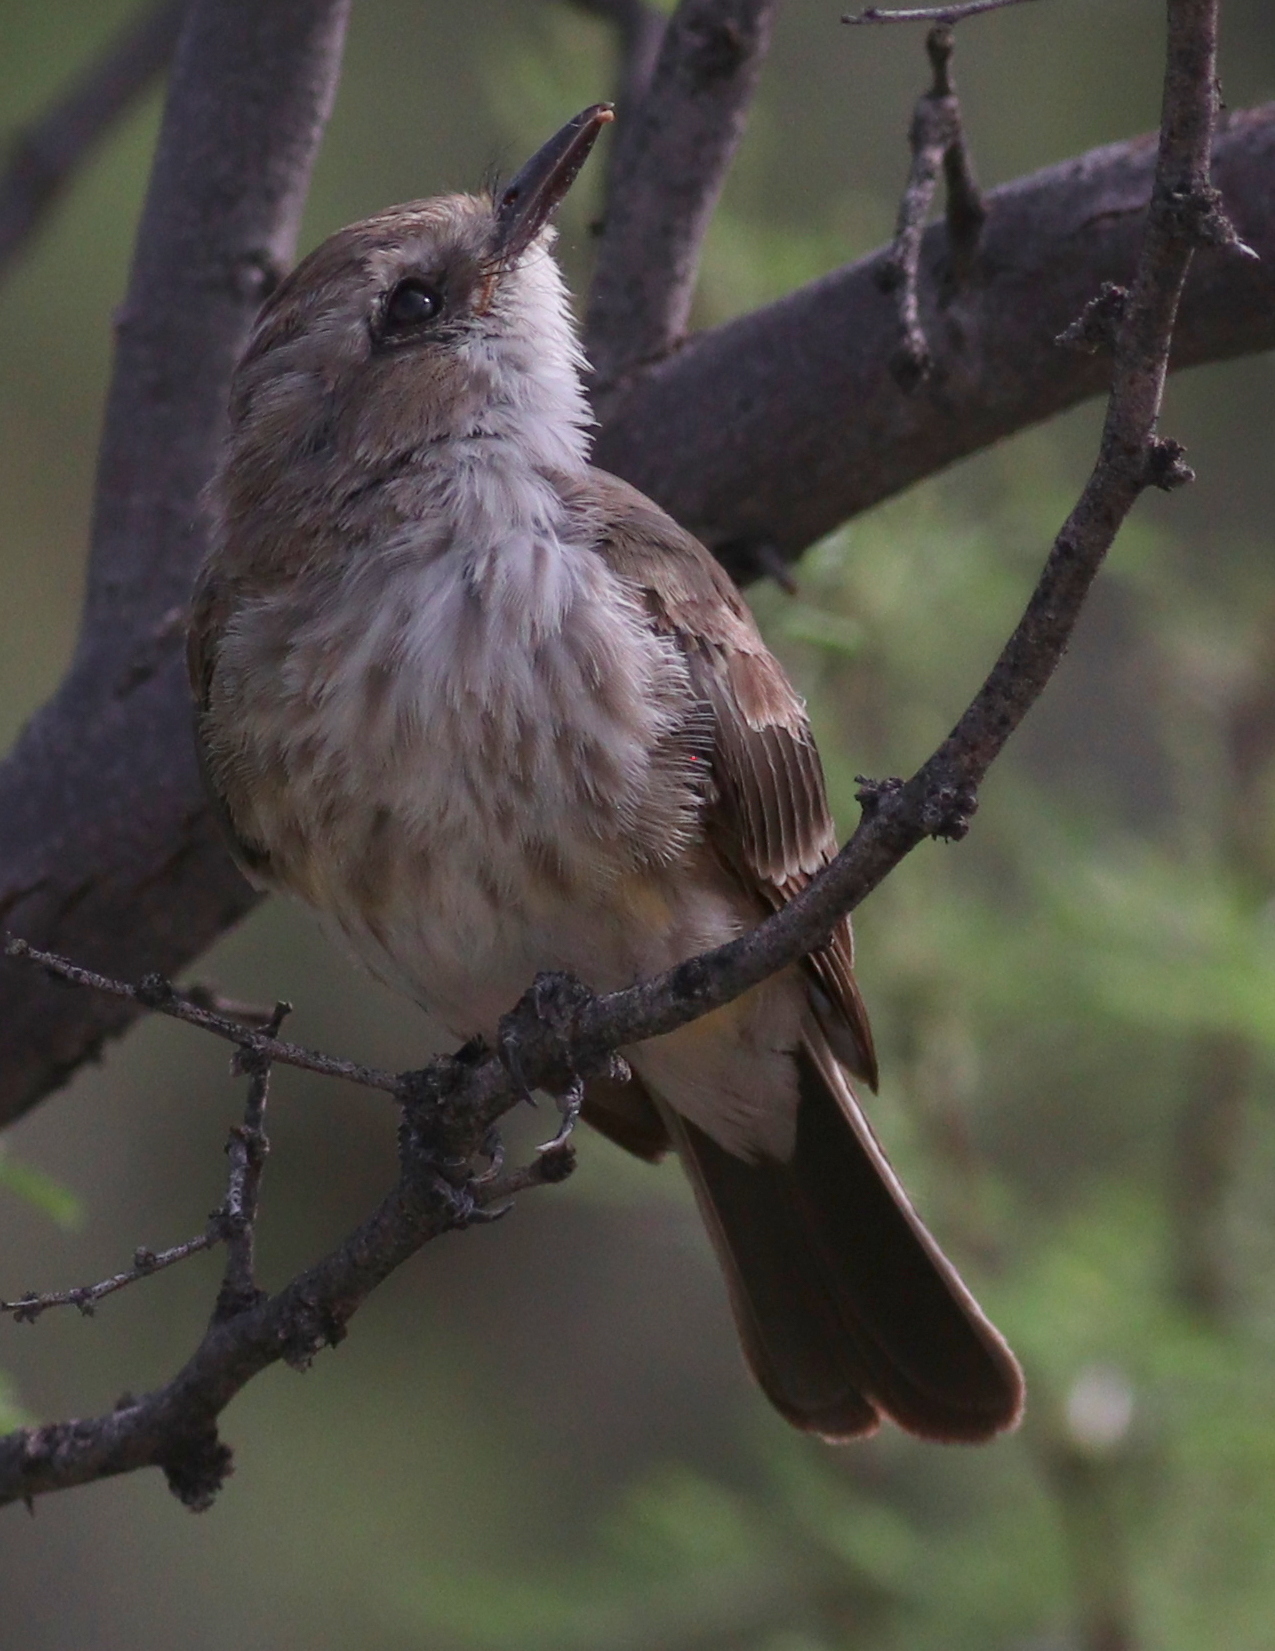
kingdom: Animalia
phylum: Chordata
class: Aves
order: Passeriformes
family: Tyrannidae
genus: Pyrocephalus
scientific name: Pyrocephalus rubinus
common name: Vermilion flycatcher
